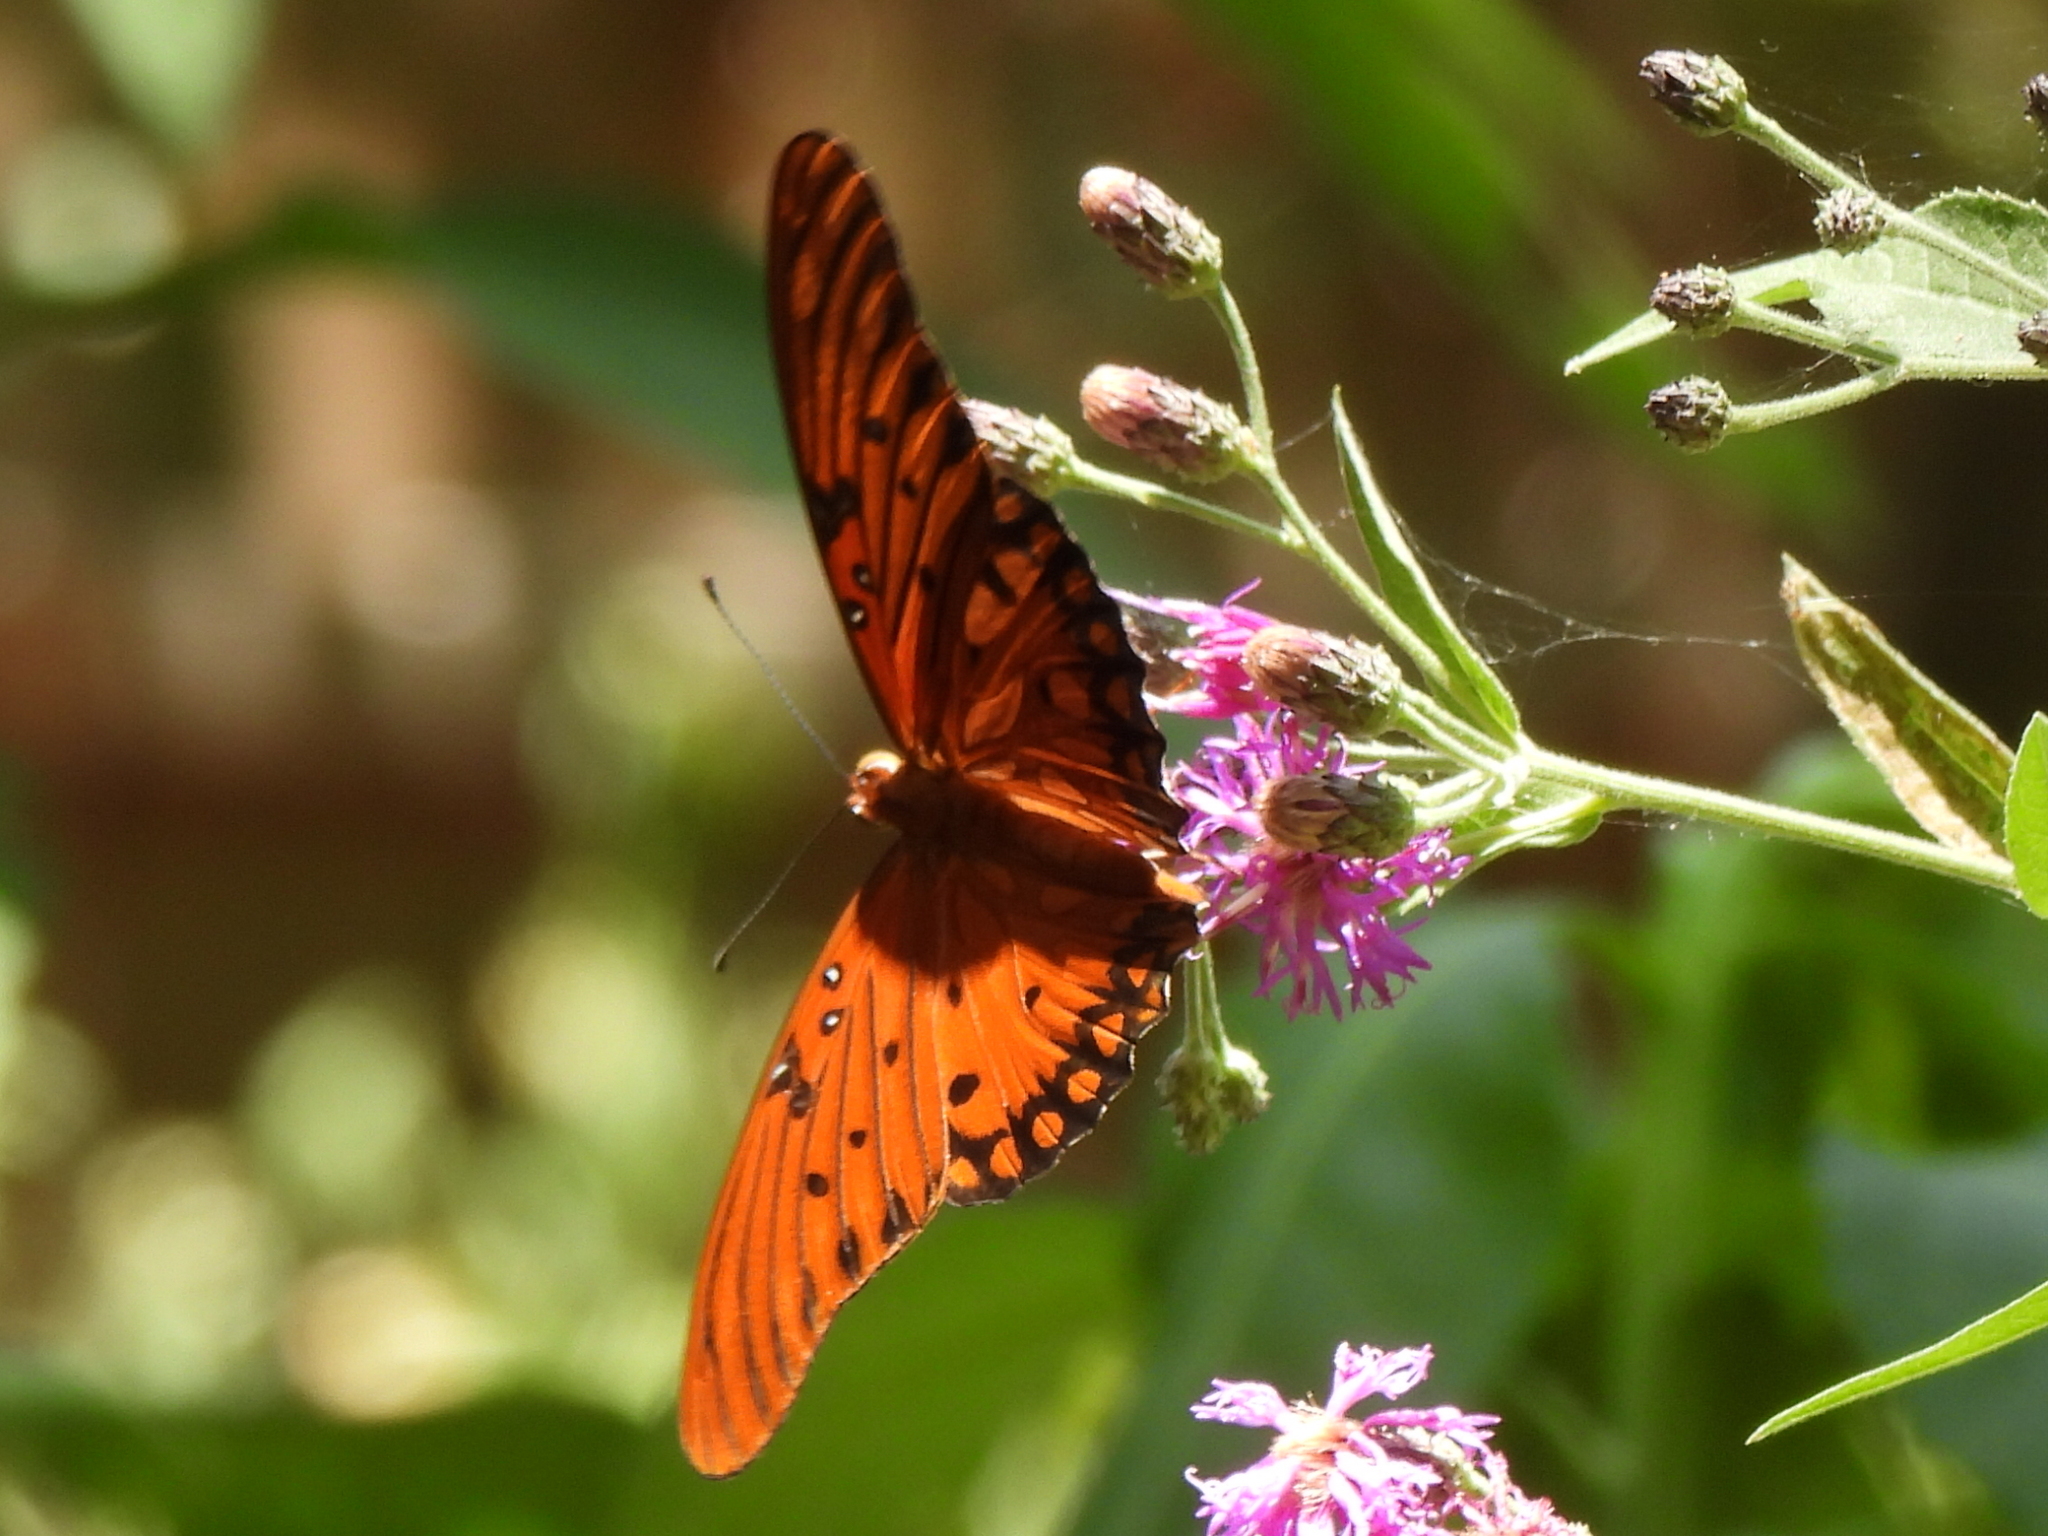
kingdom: Animalia
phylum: Arthropoda
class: Insecta
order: Lepidoptera
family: Nymphalidae
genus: Dione
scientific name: Dione vanillae
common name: Gulf fritillary
